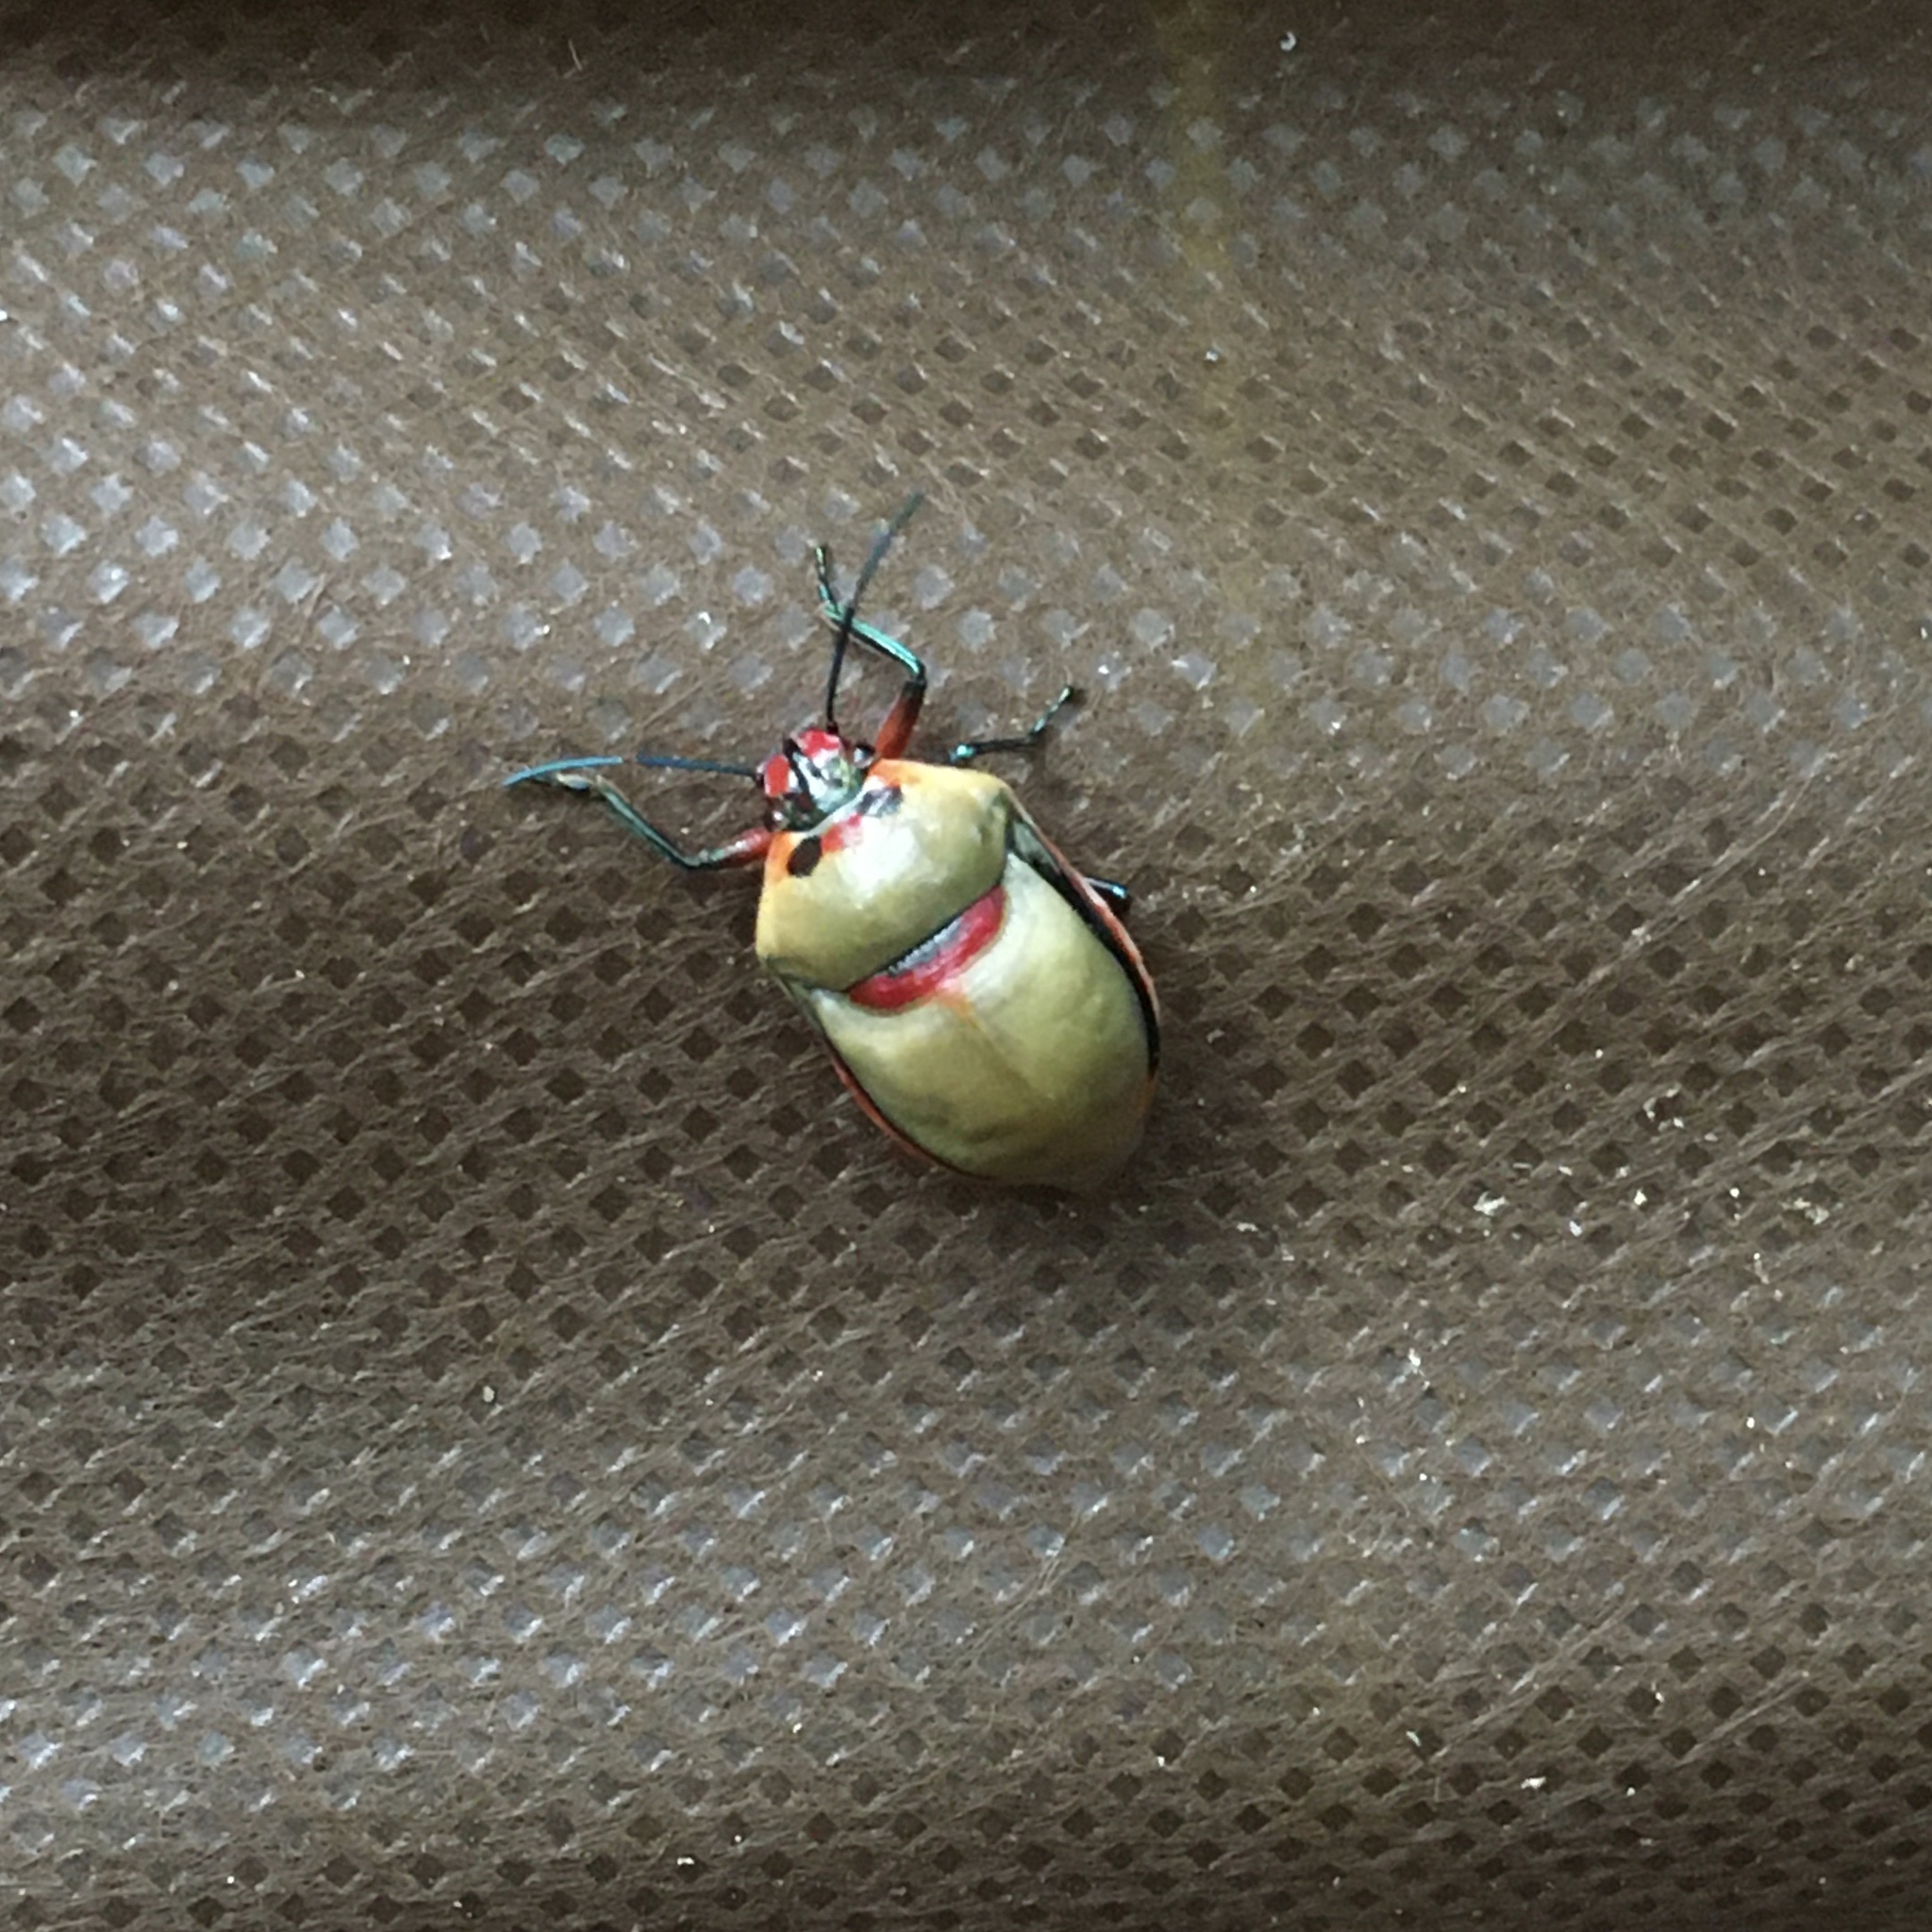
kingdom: Animalia
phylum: Arthropoda
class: Insecta
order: Hemiptera
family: Scutelleridae
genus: Augocoris
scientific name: Augocoris illustris
